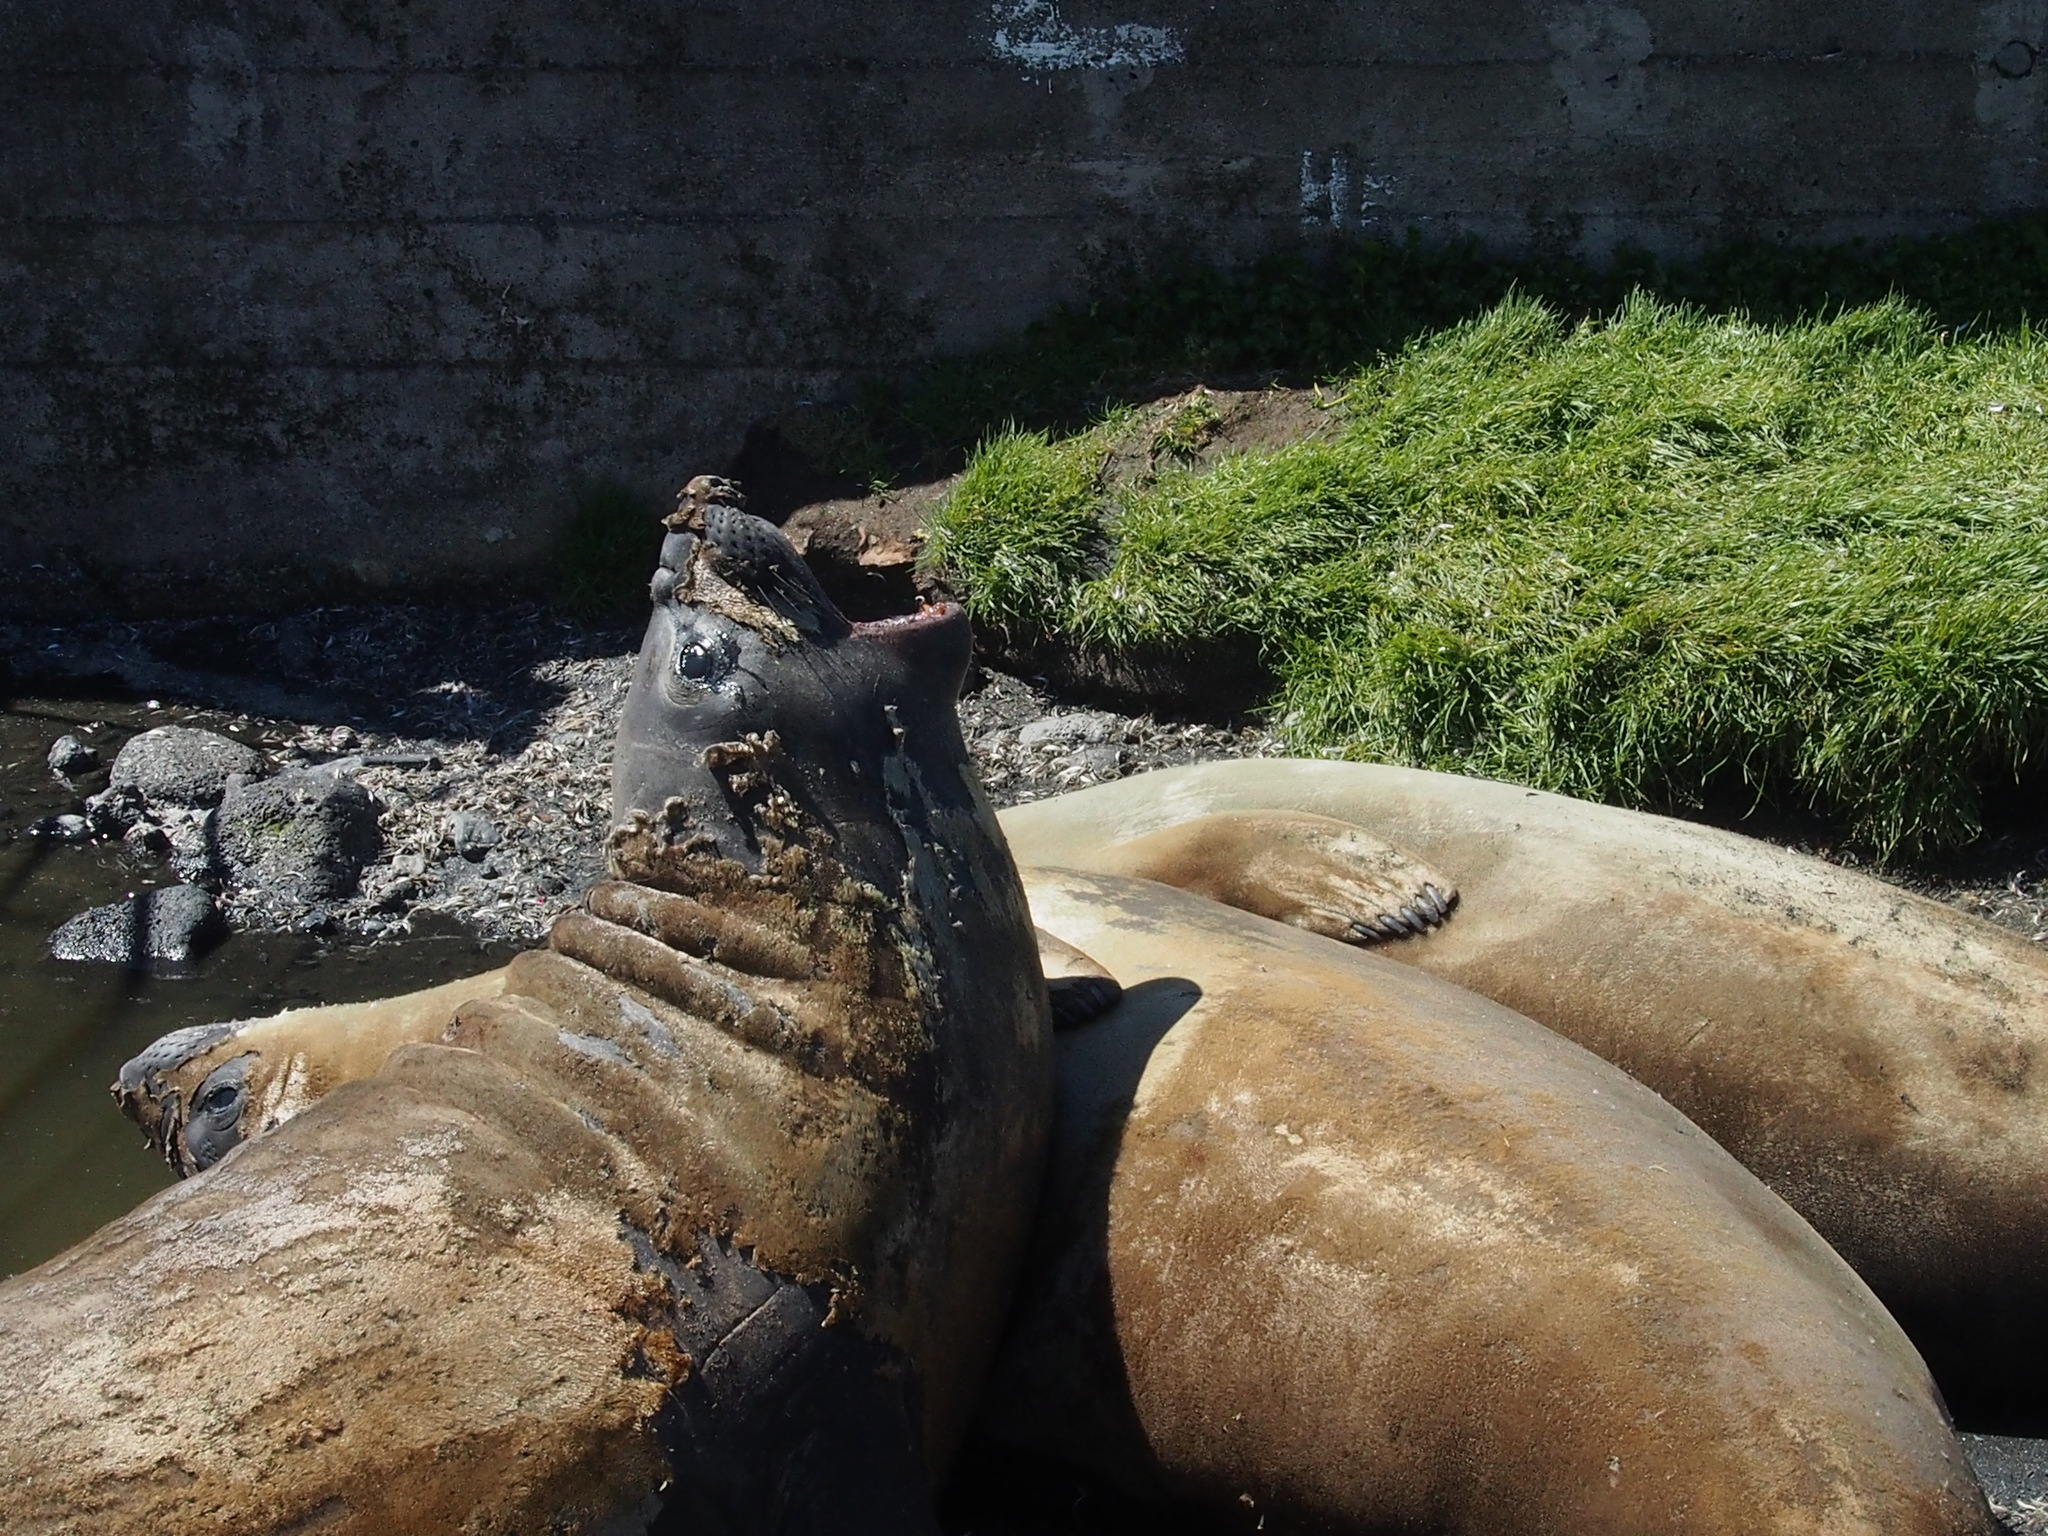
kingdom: Animalia
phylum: Chordata
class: Mammalia
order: Carnivora
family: Phocidae
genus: Mirounga
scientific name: Mirounga leonina
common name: Southern elephant seal
